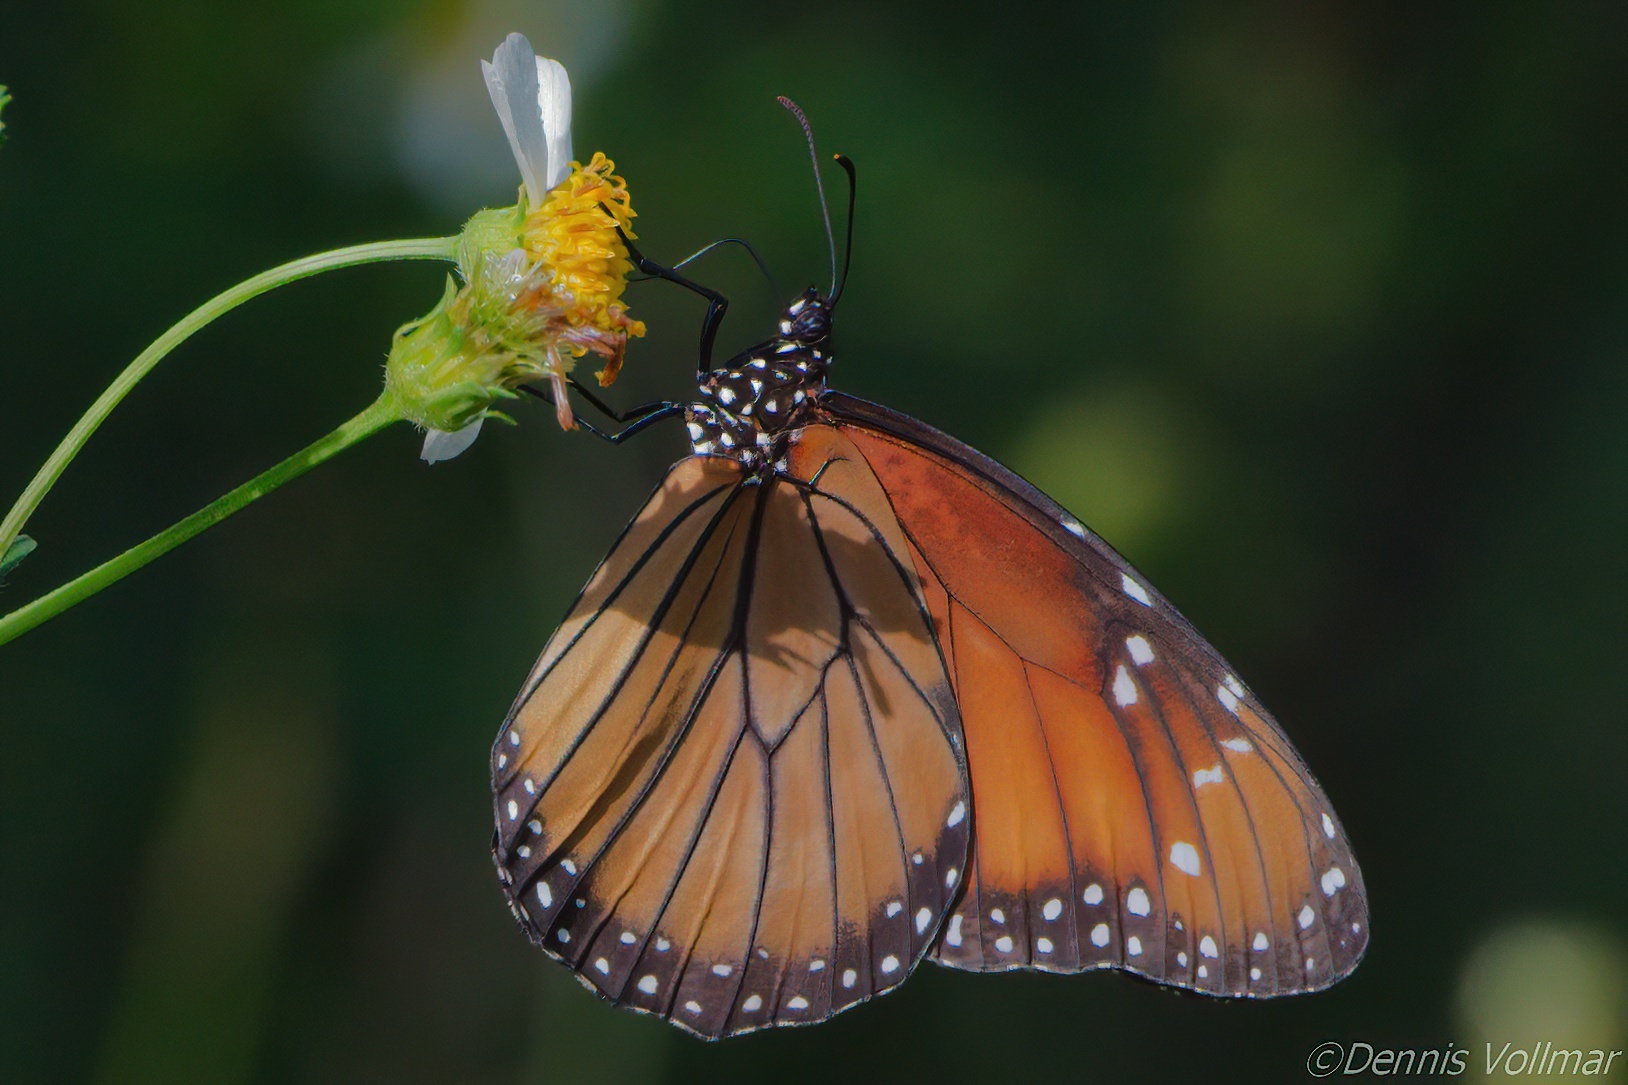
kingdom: Animalia
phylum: Arthropoda
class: Insecta
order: Lepidoptera
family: Nymphalidae
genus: Danaus
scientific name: Danaus eresimus
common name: Soldier
